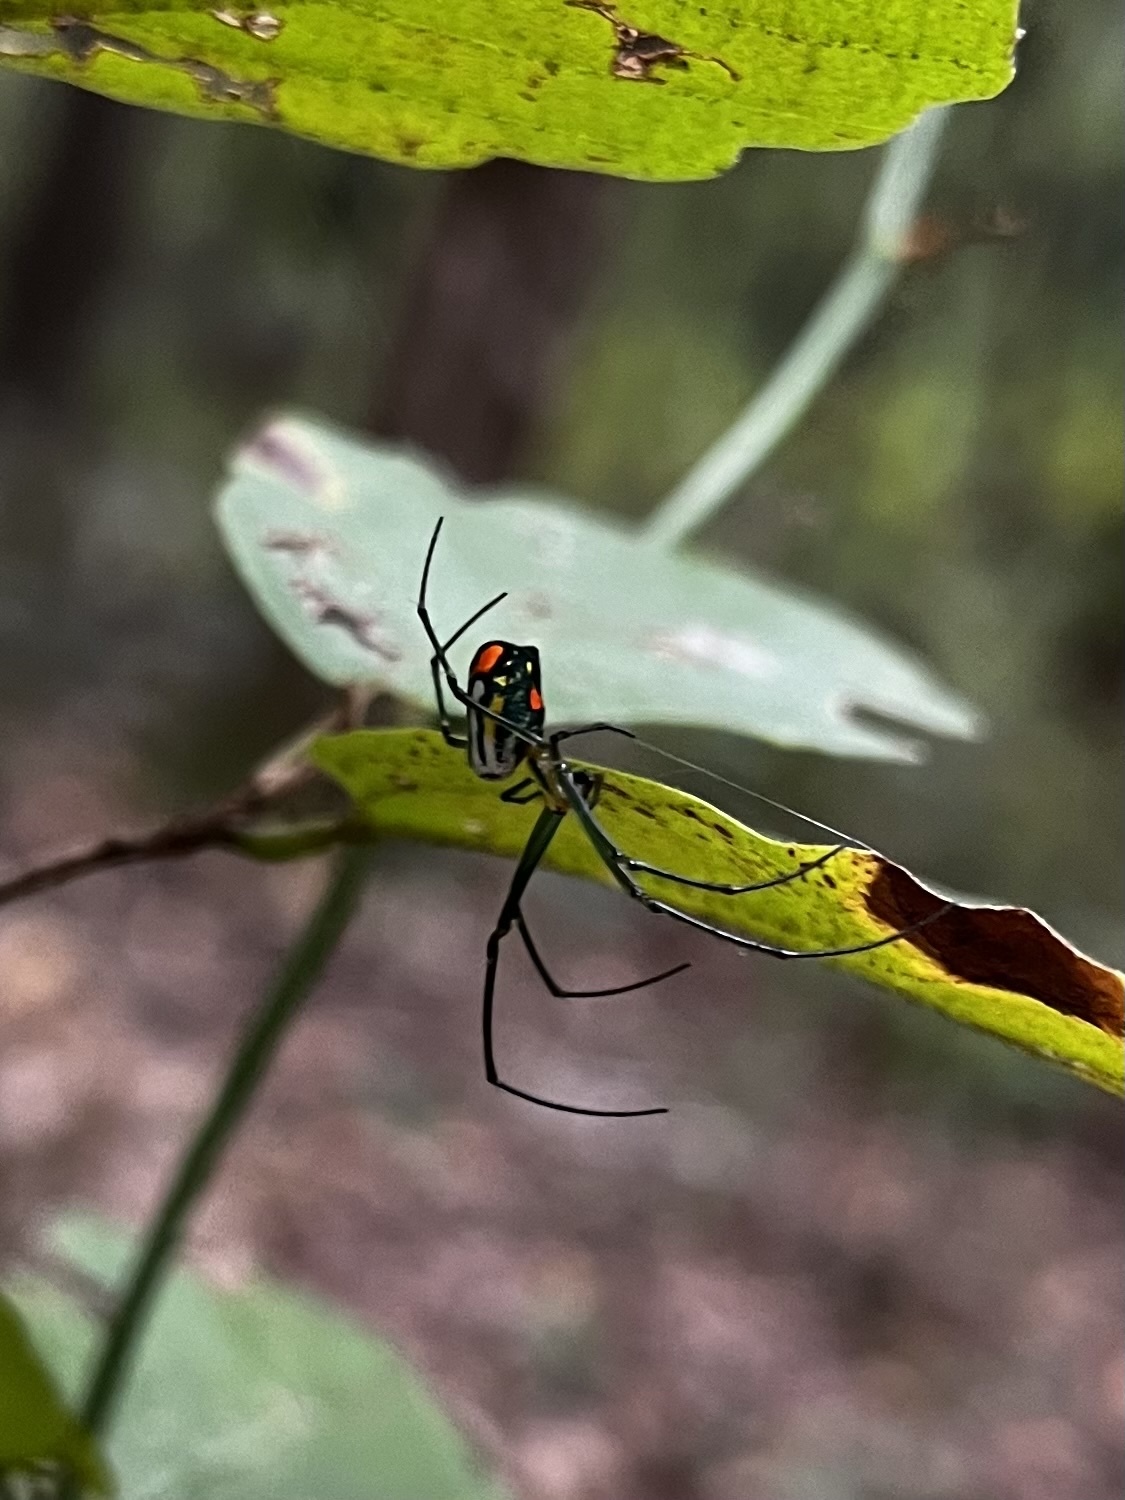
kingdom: Animalia
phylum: Arthropoda
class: Arachnida
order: Araneae
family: Tetragnathidae
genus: Leucauge
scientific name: Leucauge argyrobapta
